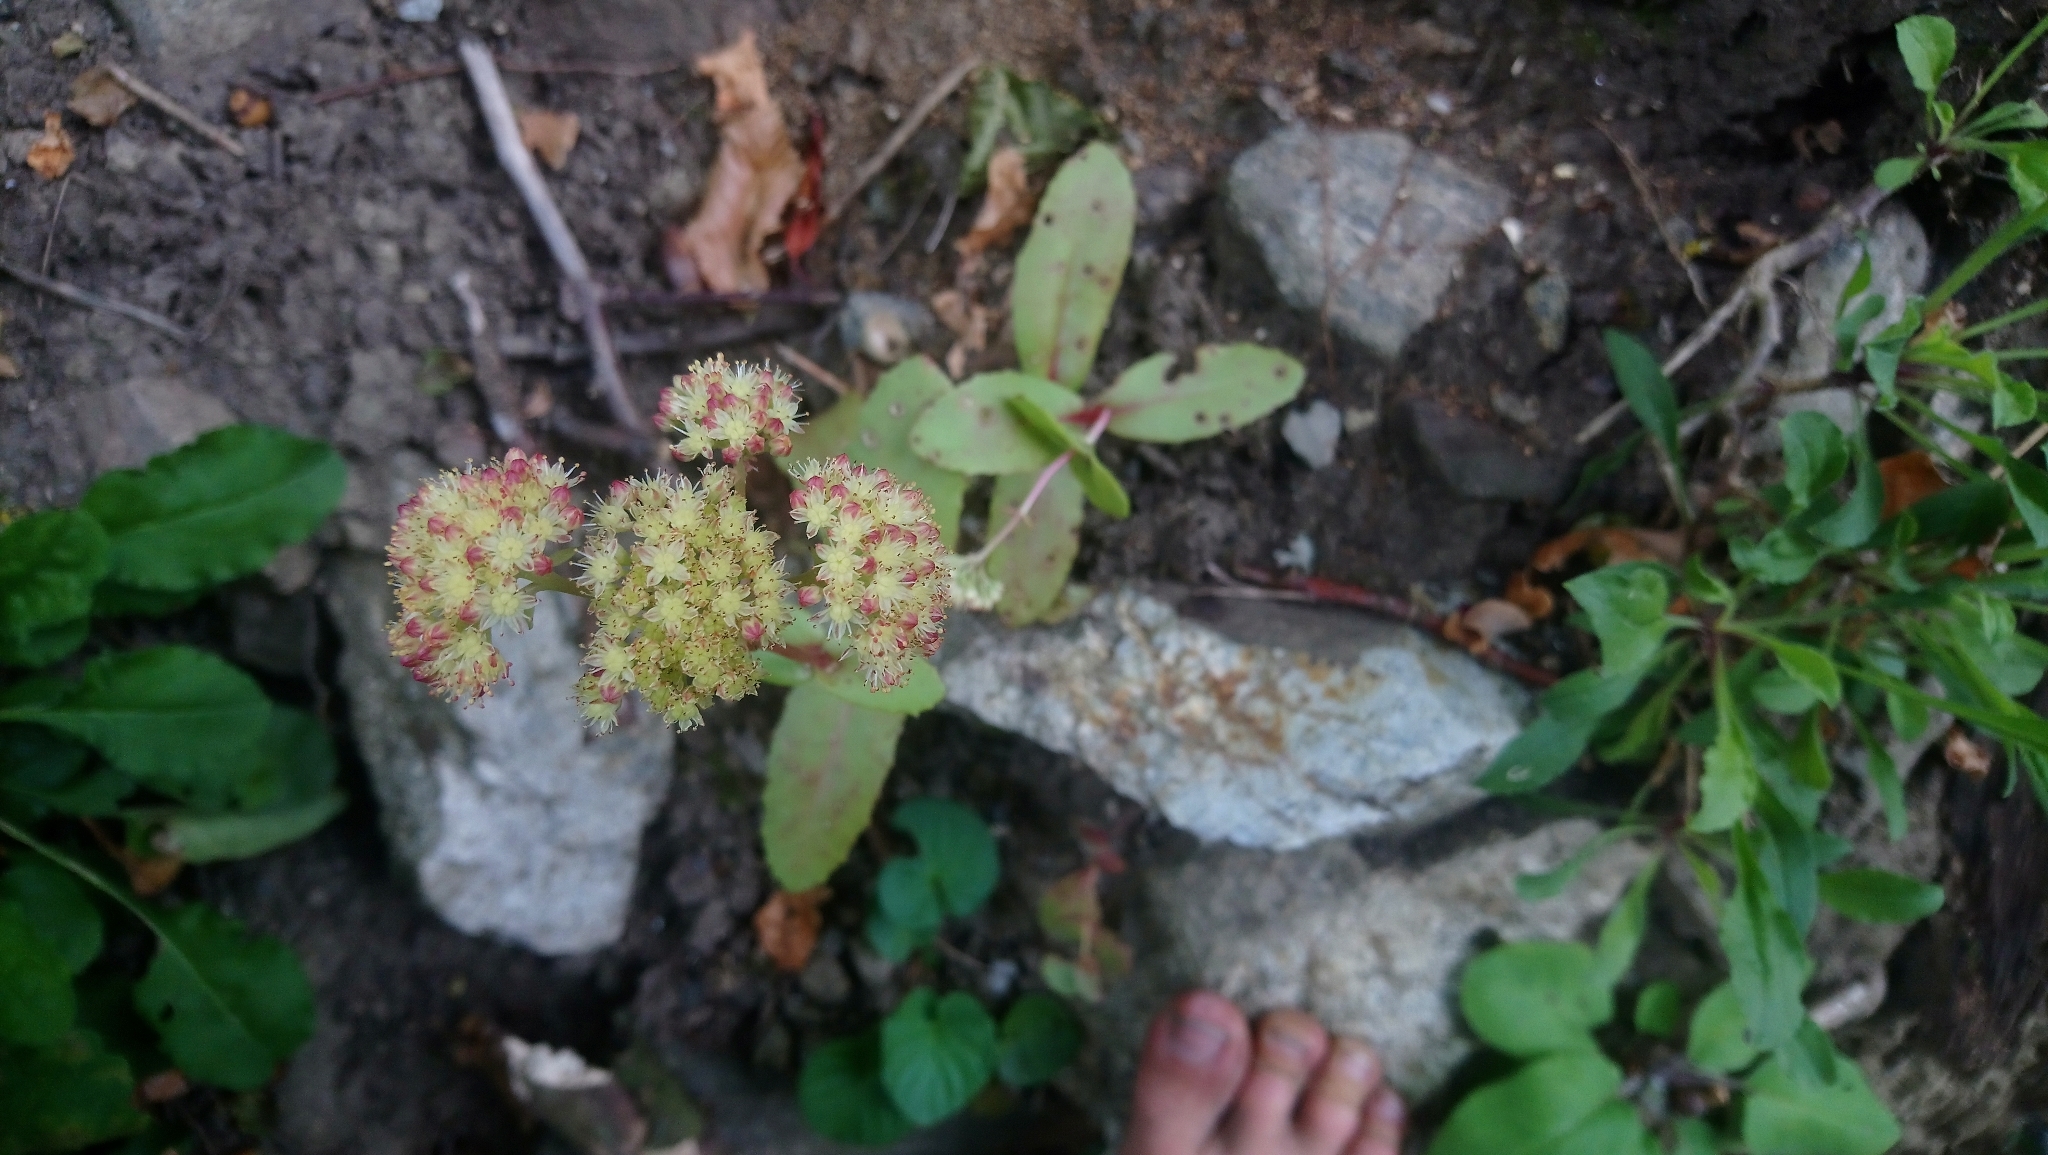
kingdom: Plantae
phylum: Tracheophyta
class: Magnoliopsida
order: Saxifragales
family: Crassulaceae
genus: Hylotelephium
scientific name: Hylotelephium maximum
